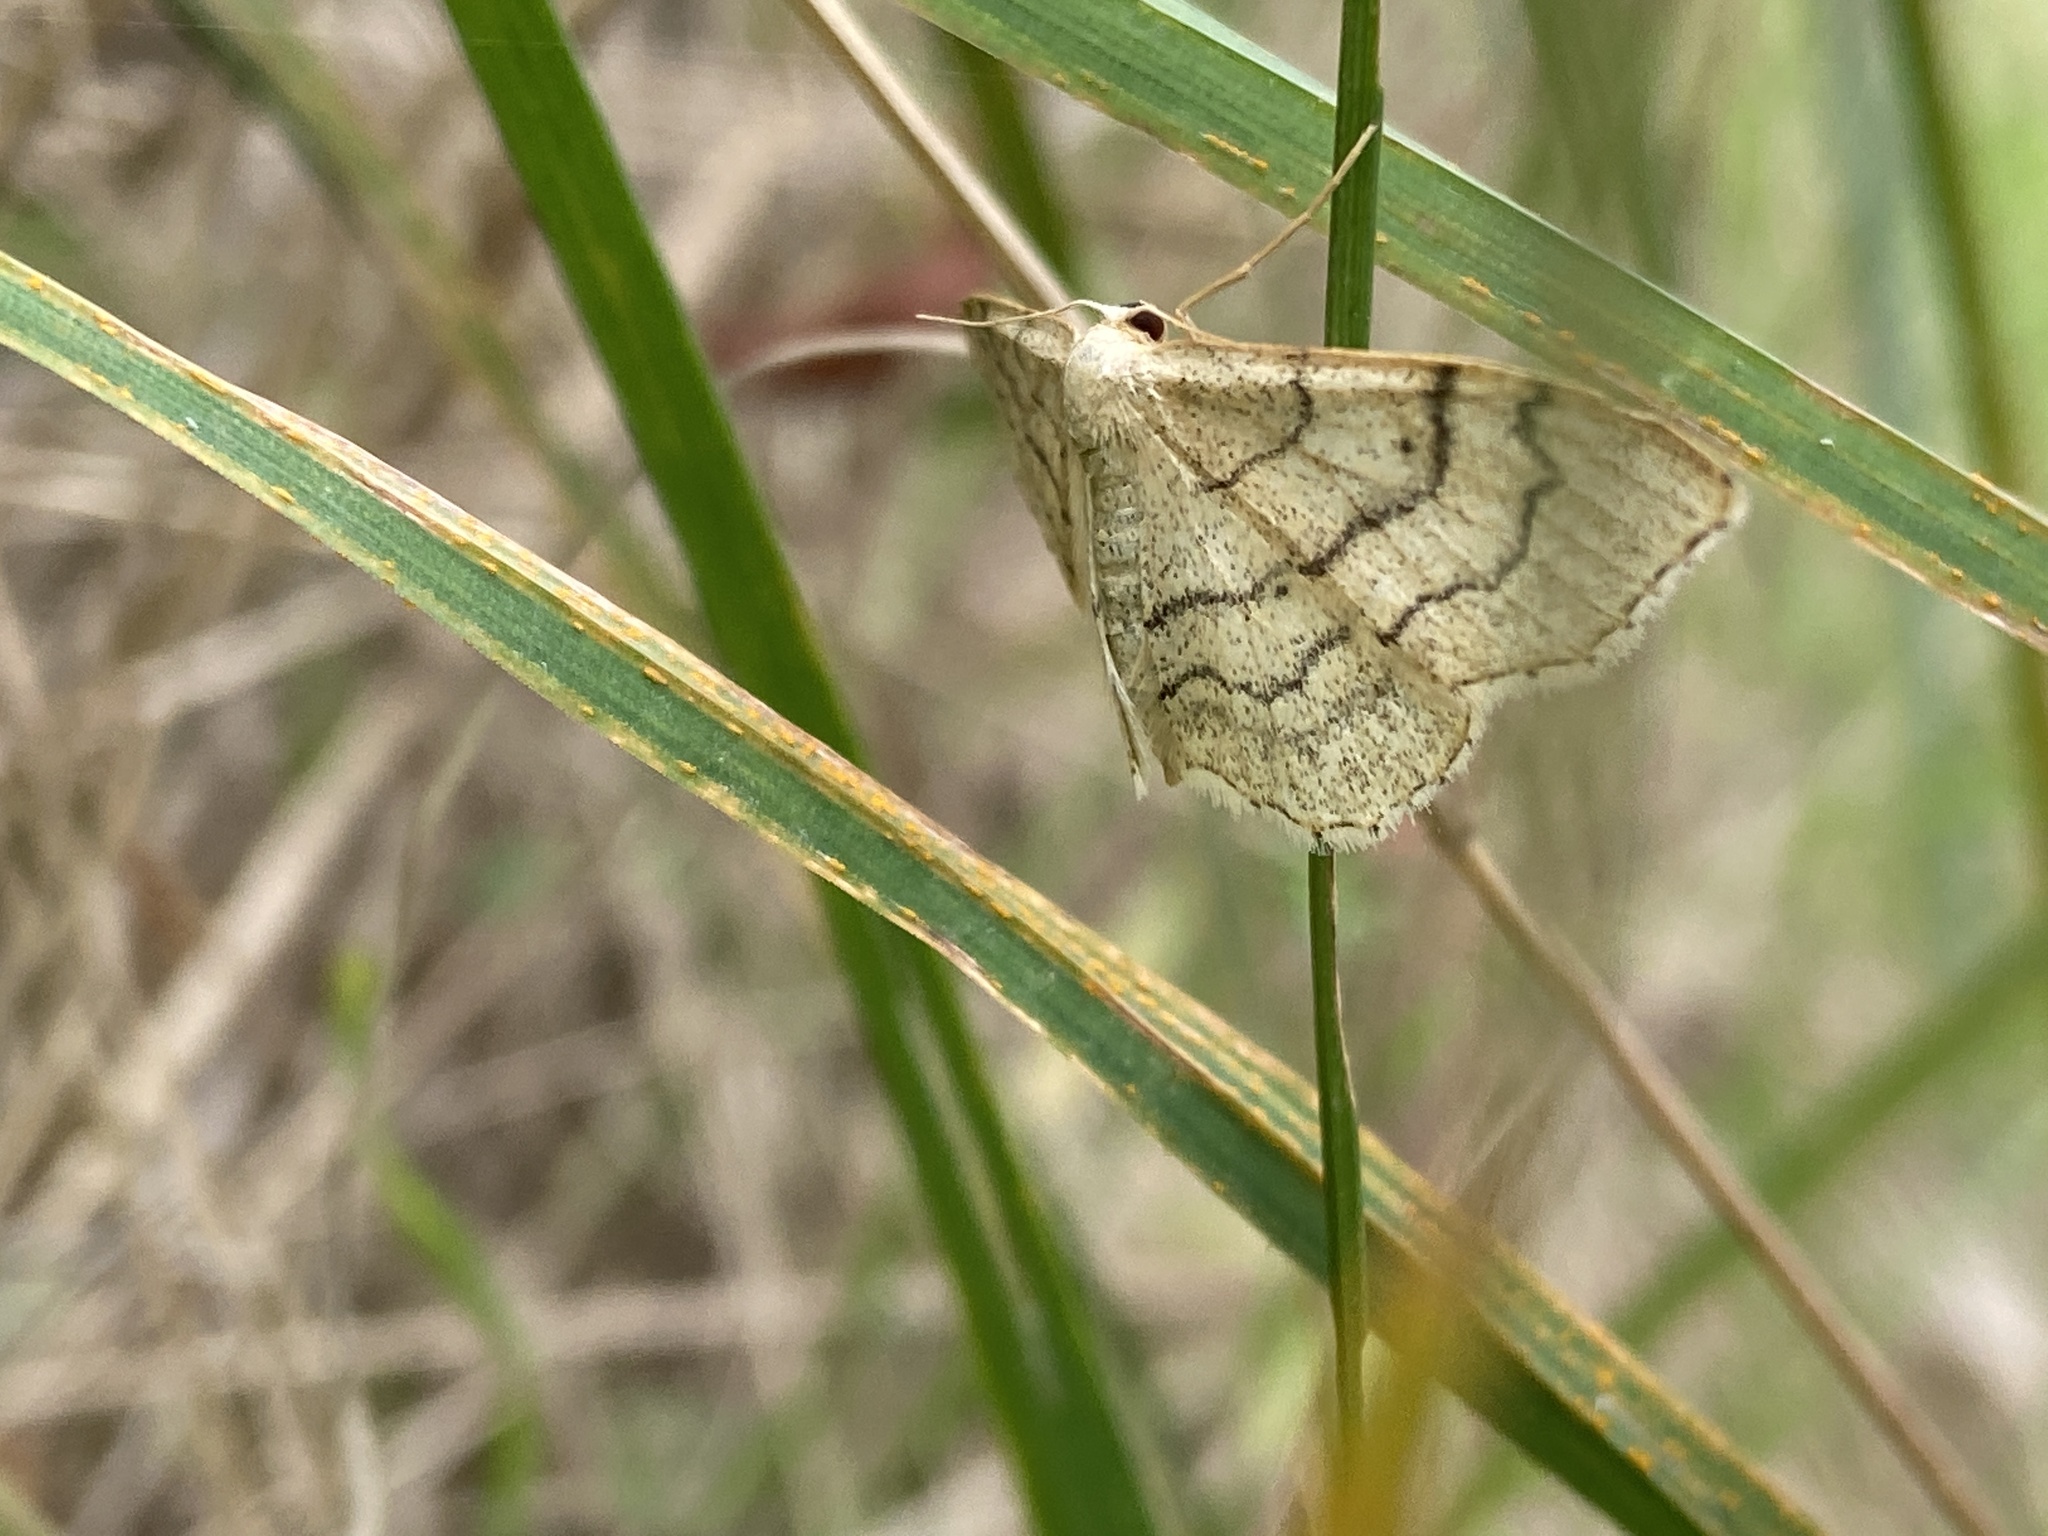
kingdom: Animalia
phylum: Arthropoda
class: Insecta
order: Lepidoptera
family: Geometridae
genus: Idaea
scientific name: Idaea aversata
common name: Riband wave
